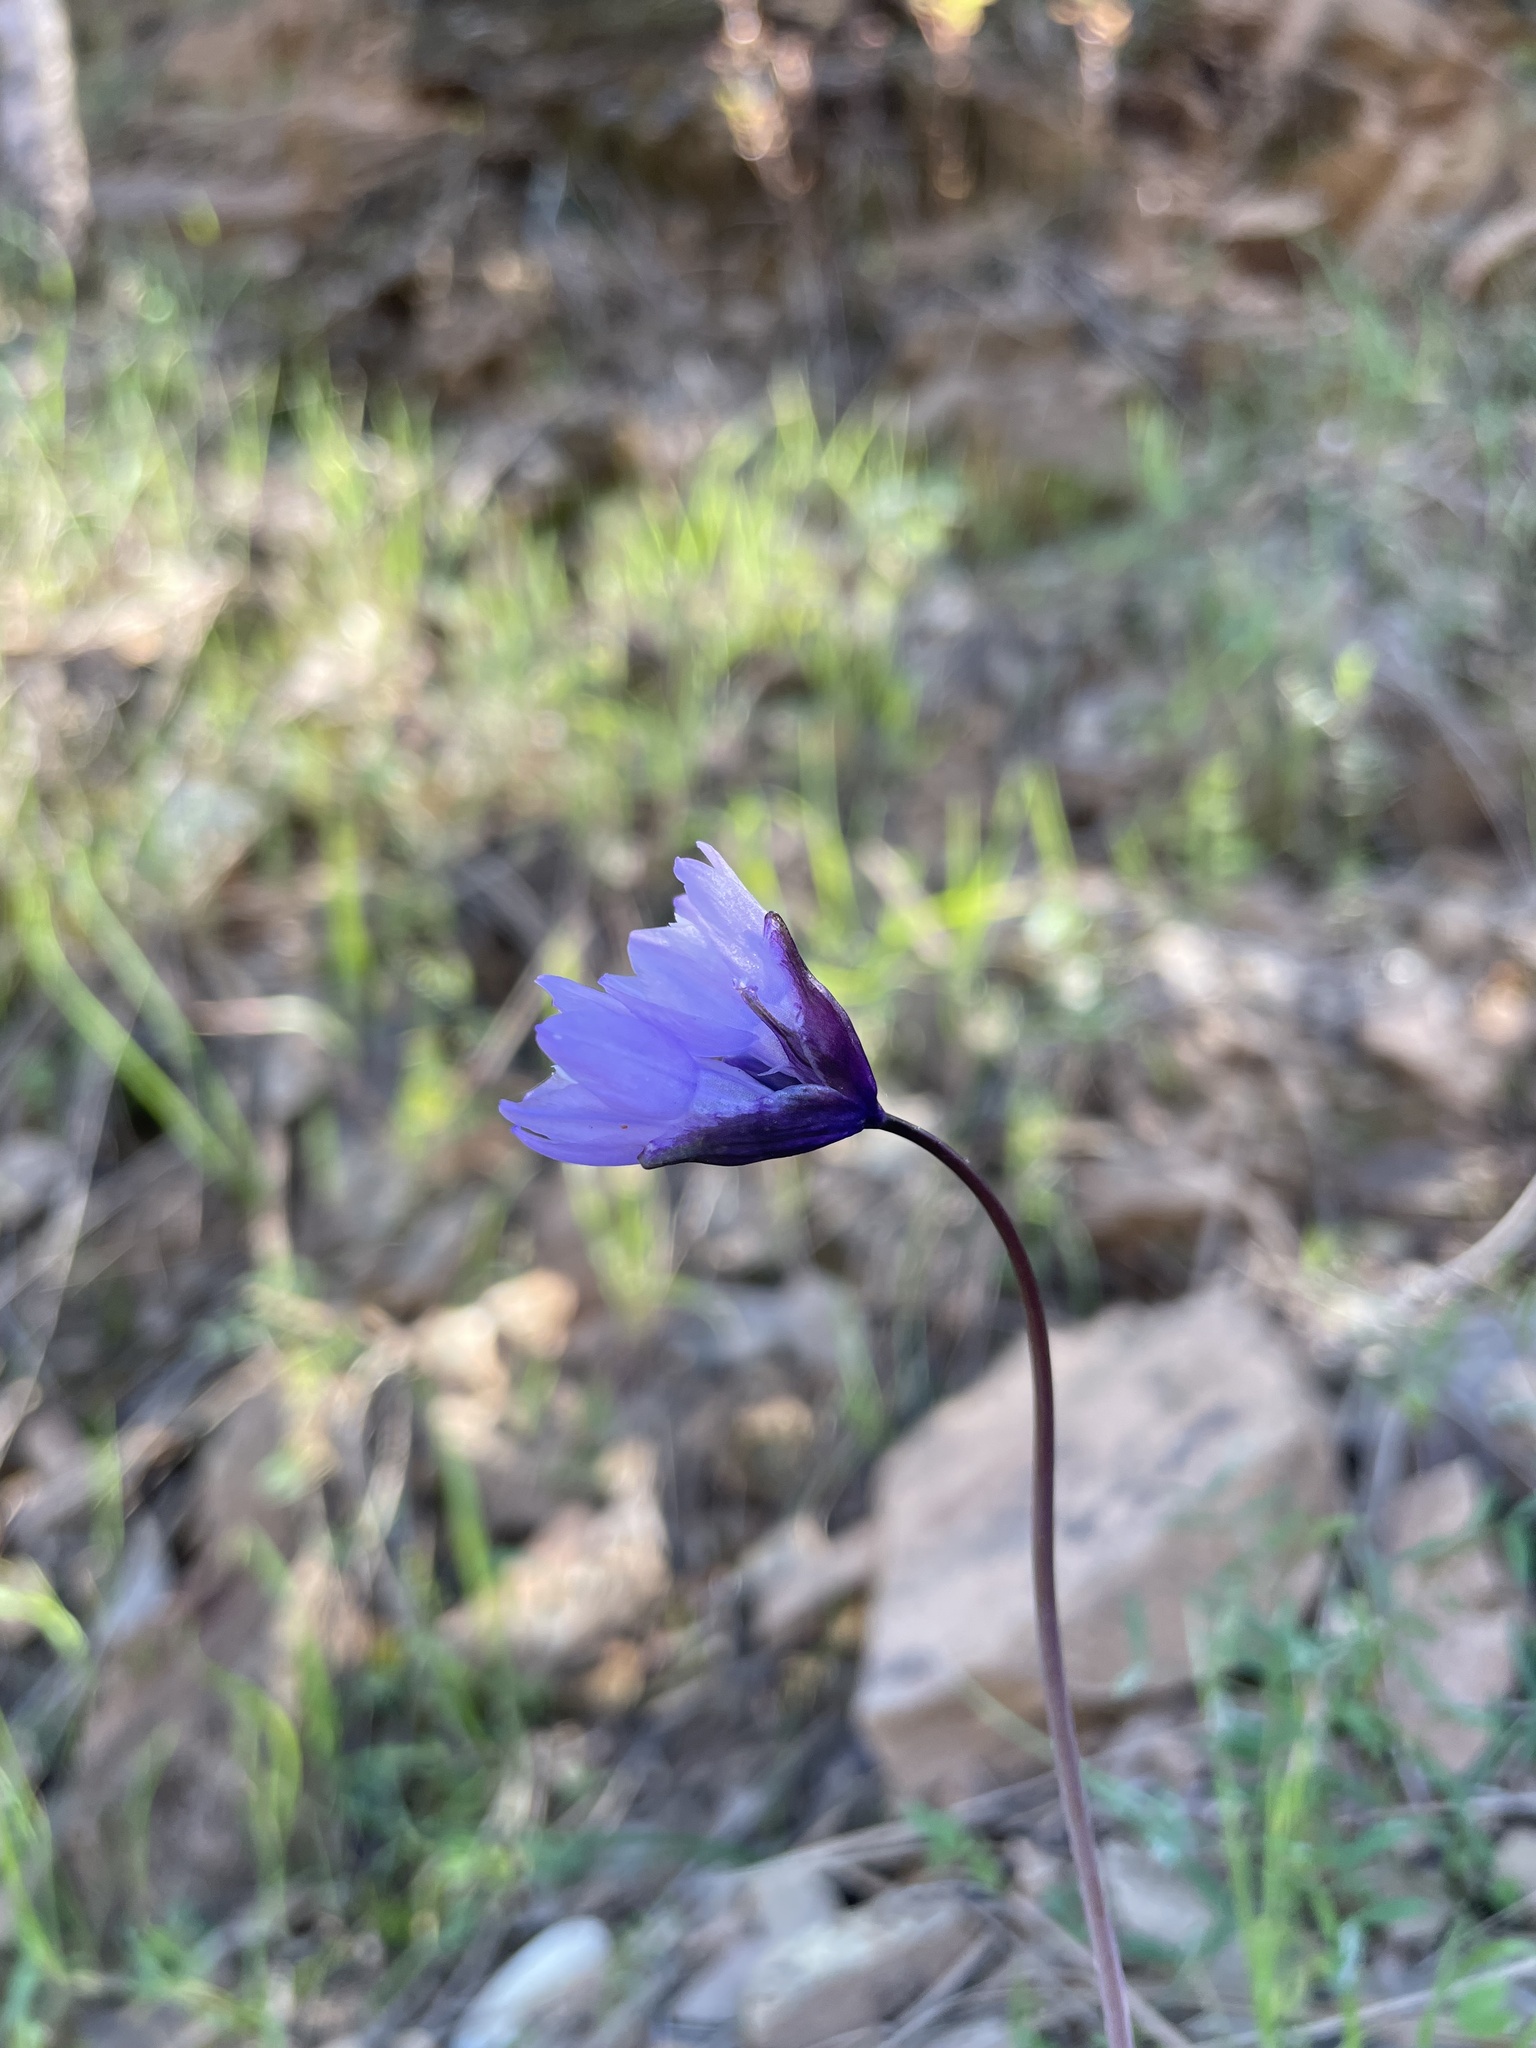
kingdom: Plantae
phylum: Tracheophyta
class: Liliopsida
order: Asparagales
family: Asparagaceae
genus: Dipterostemon
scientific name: Dipterostemon capitatus
